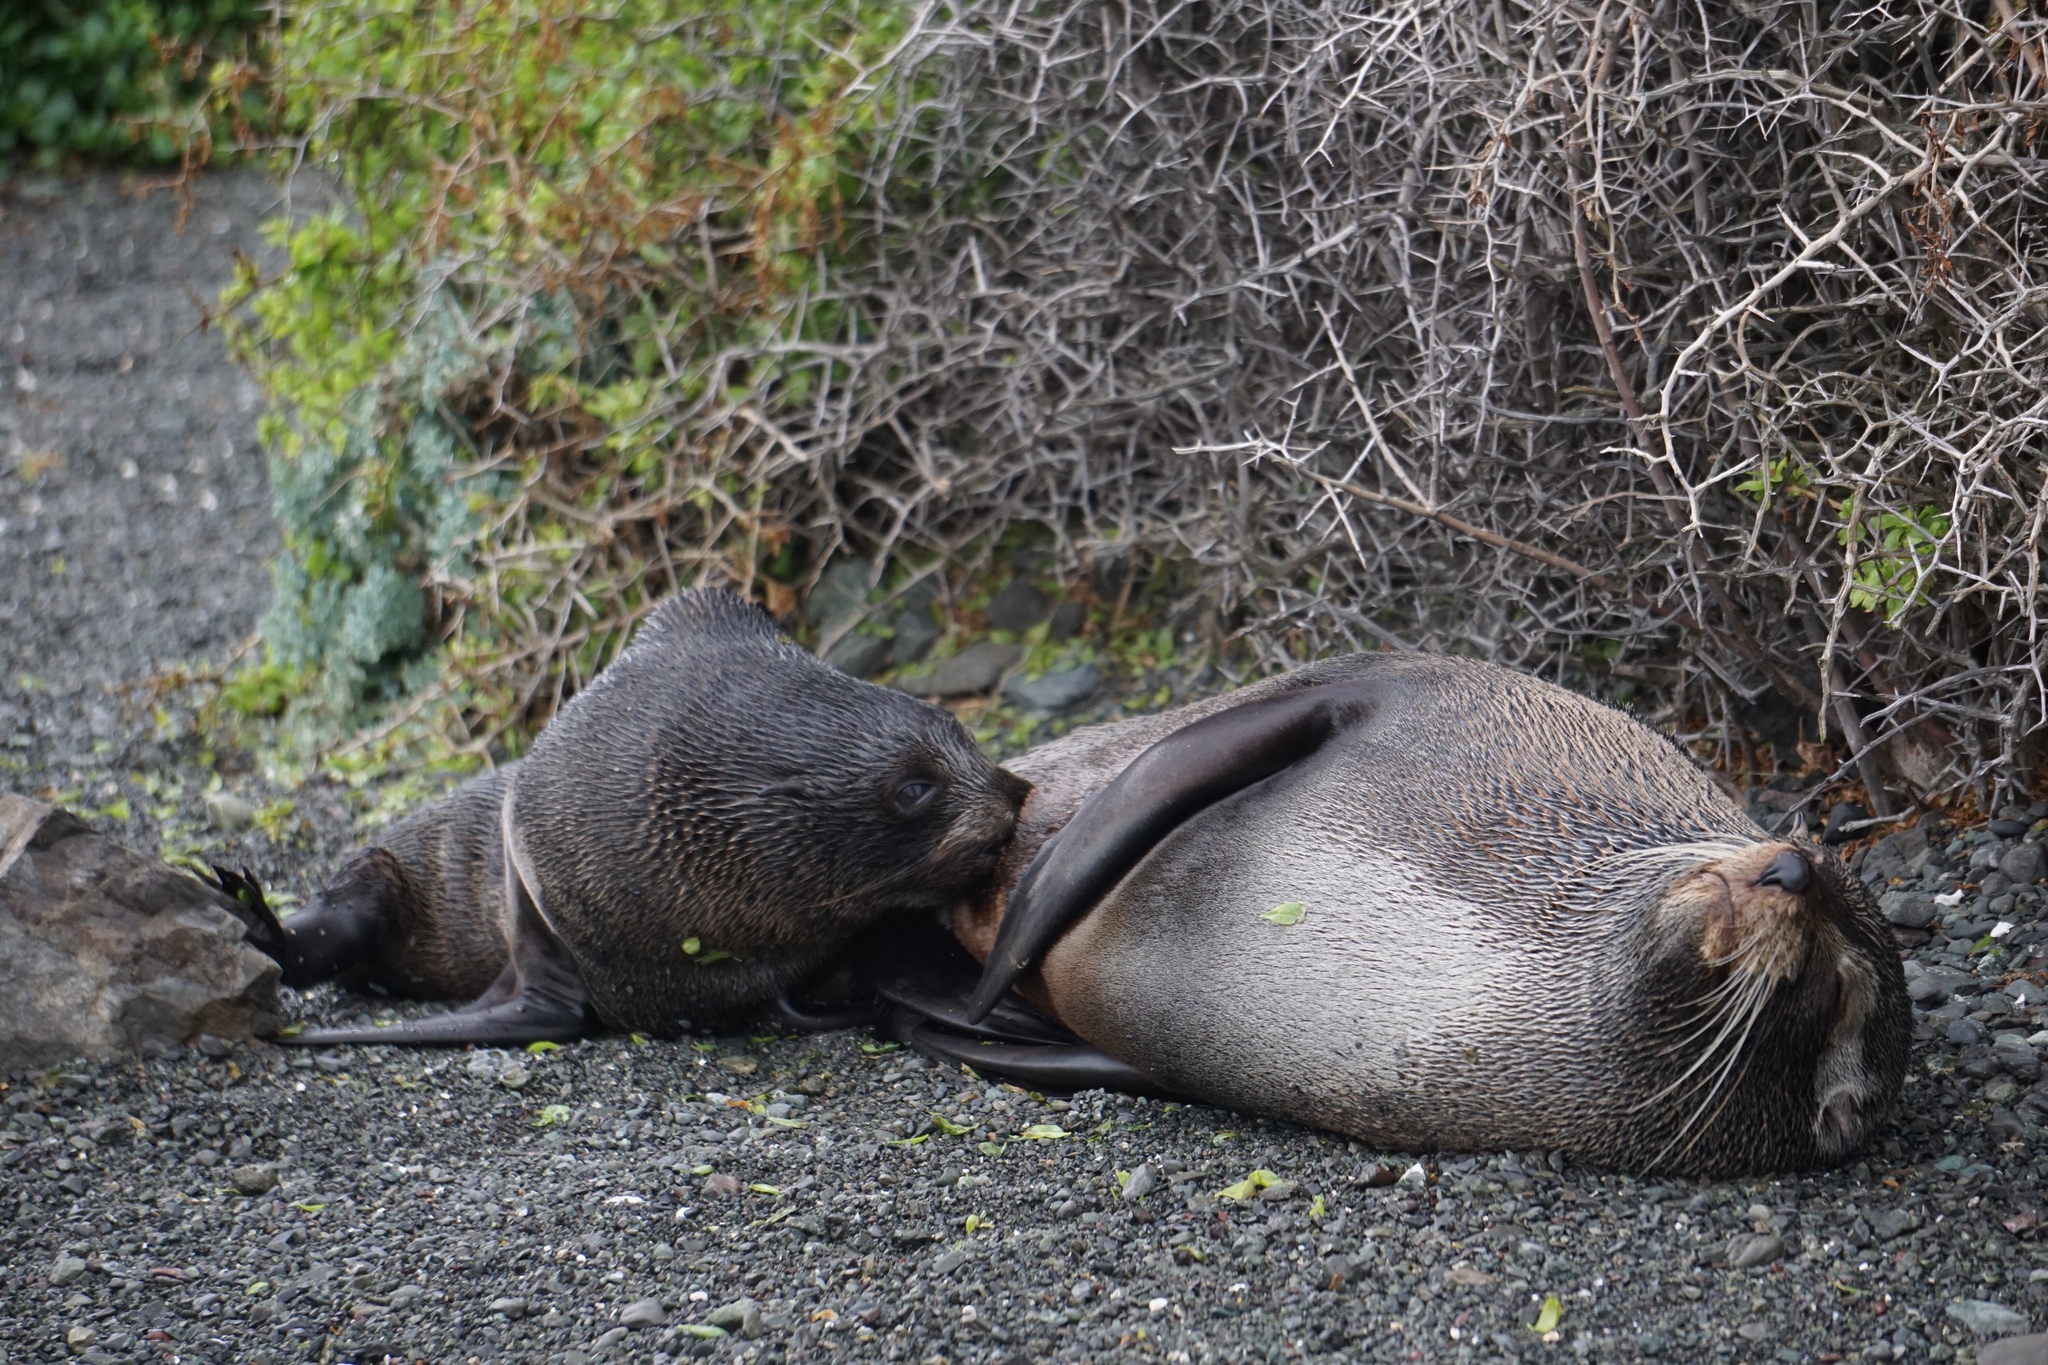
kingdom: Animalia
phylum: Chordata
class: Mammalia
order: Carnivora
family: Otariidae
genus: Arctocephalus
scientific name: Arctocephalus forsteri
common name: New zealand fur seal
